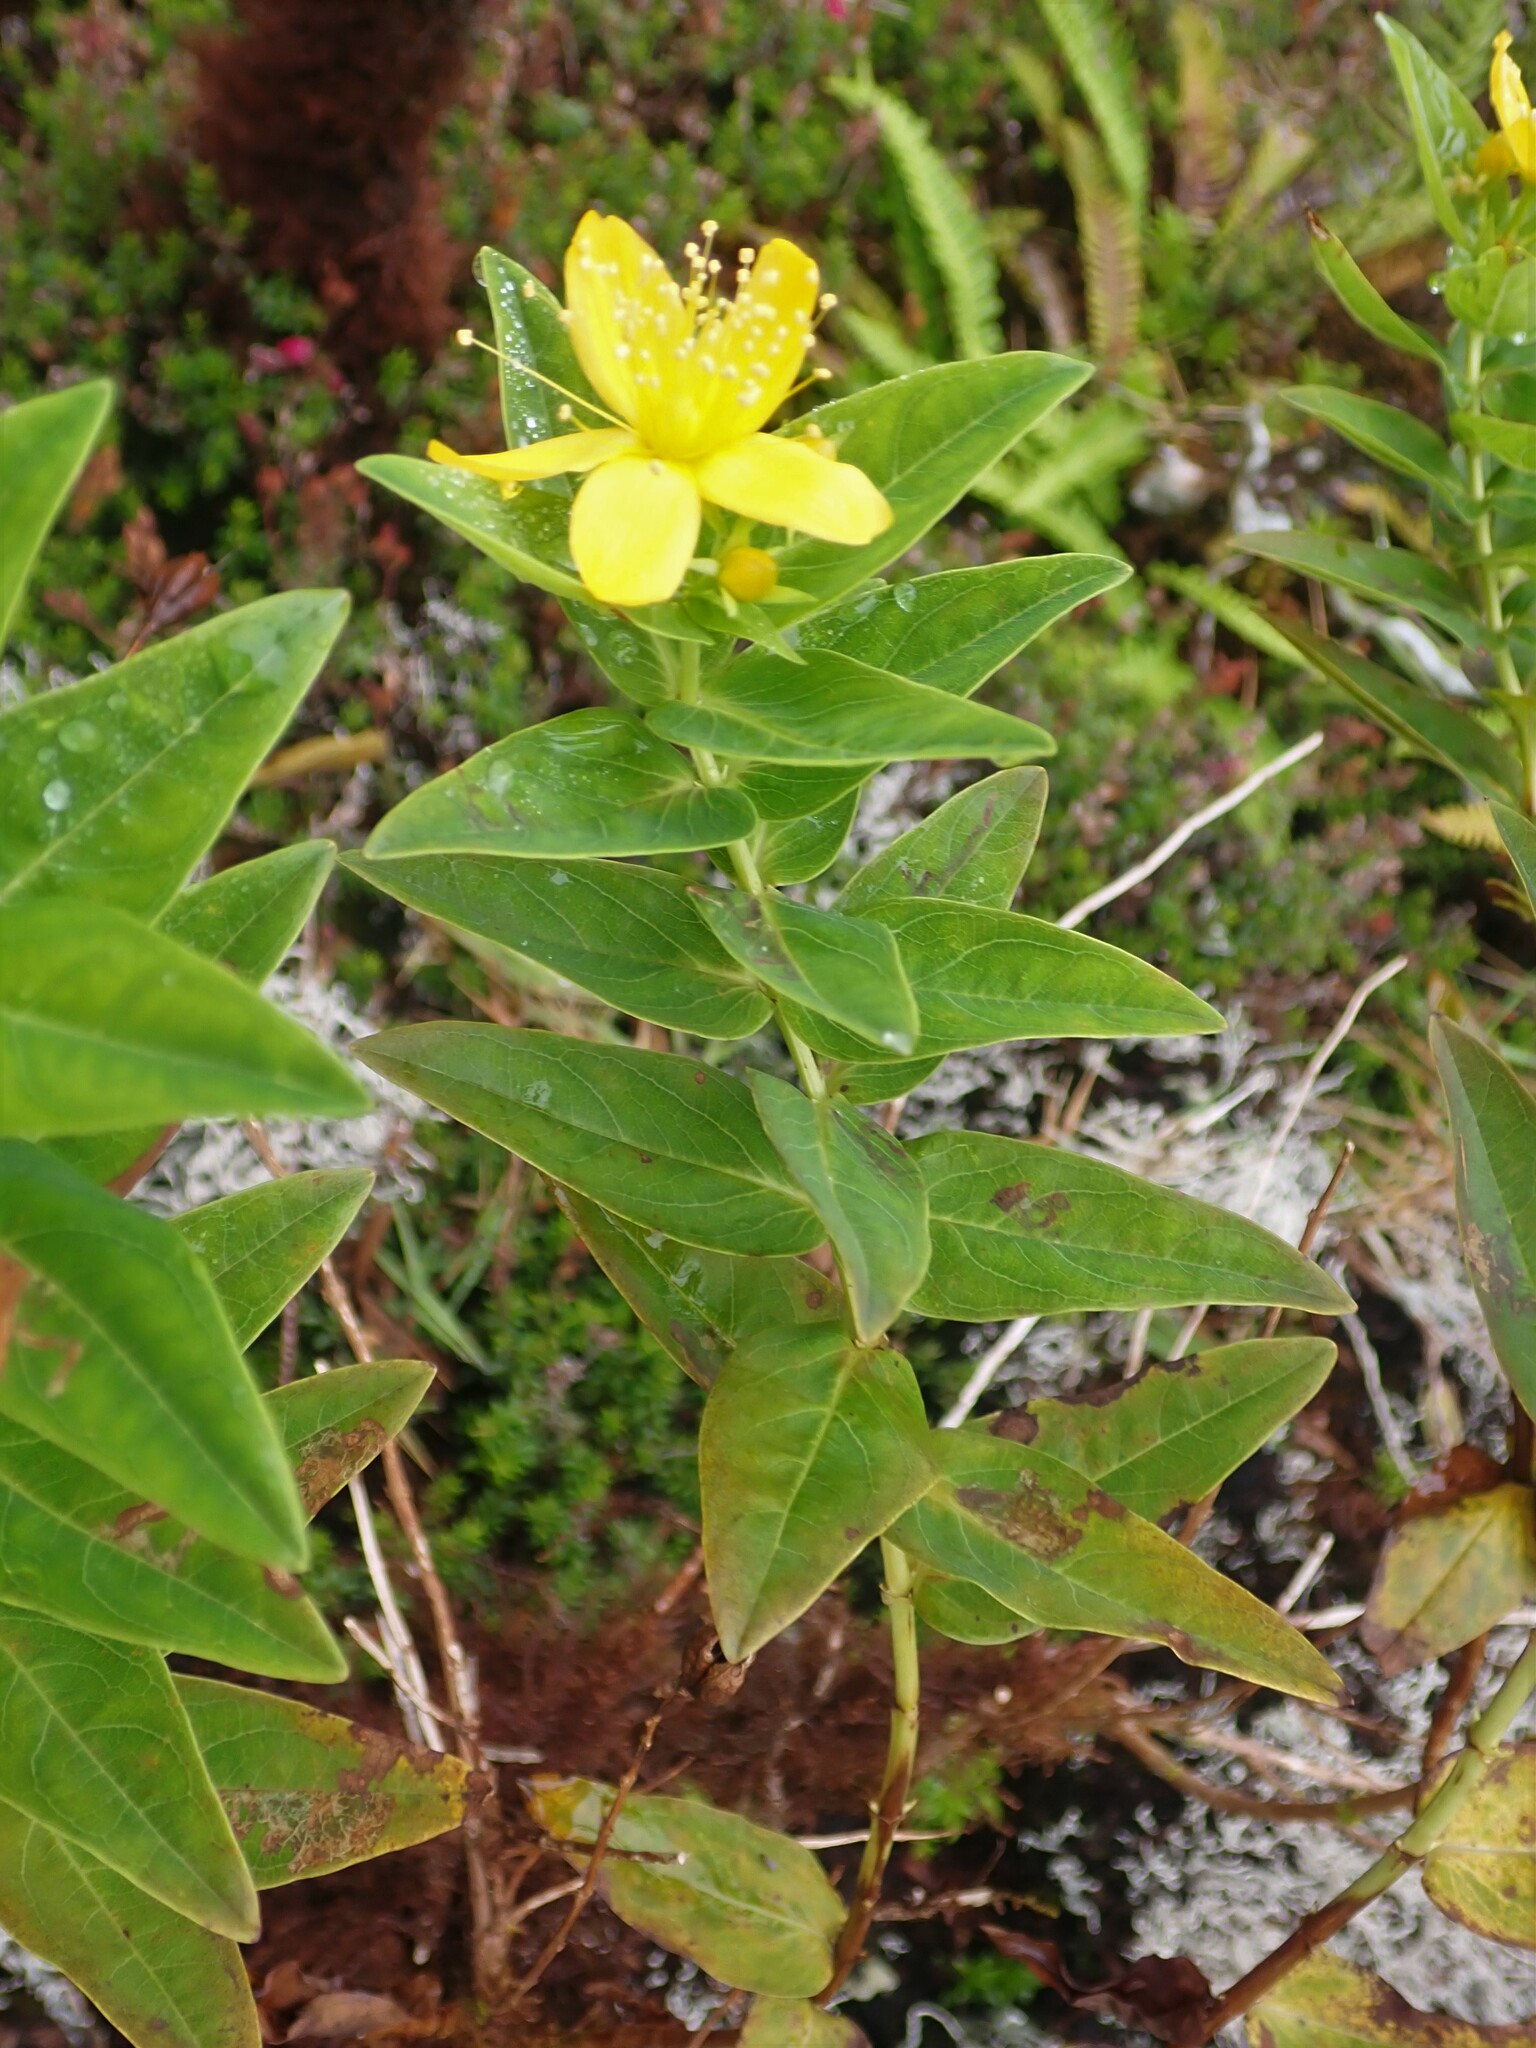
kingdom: Plantae
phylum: Tracheophyta
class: Magnoliopsida
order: Malpighiales
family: Hypericaceae
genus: Hypericum
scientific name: Hypericum foliosum
